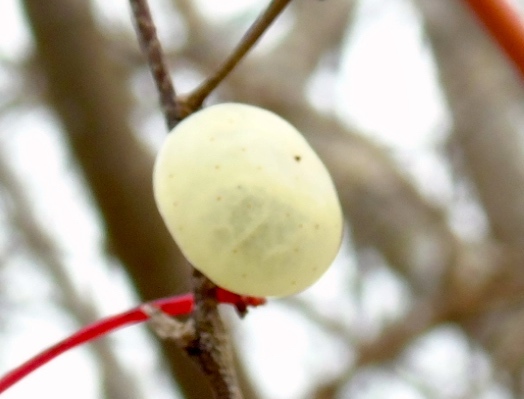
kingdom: Plantae
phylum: Tracheophyta
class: Magnoliopsida
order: Vitales
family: Vitaceae
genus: Ampelopsis
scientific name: Ampelopsis denudata
